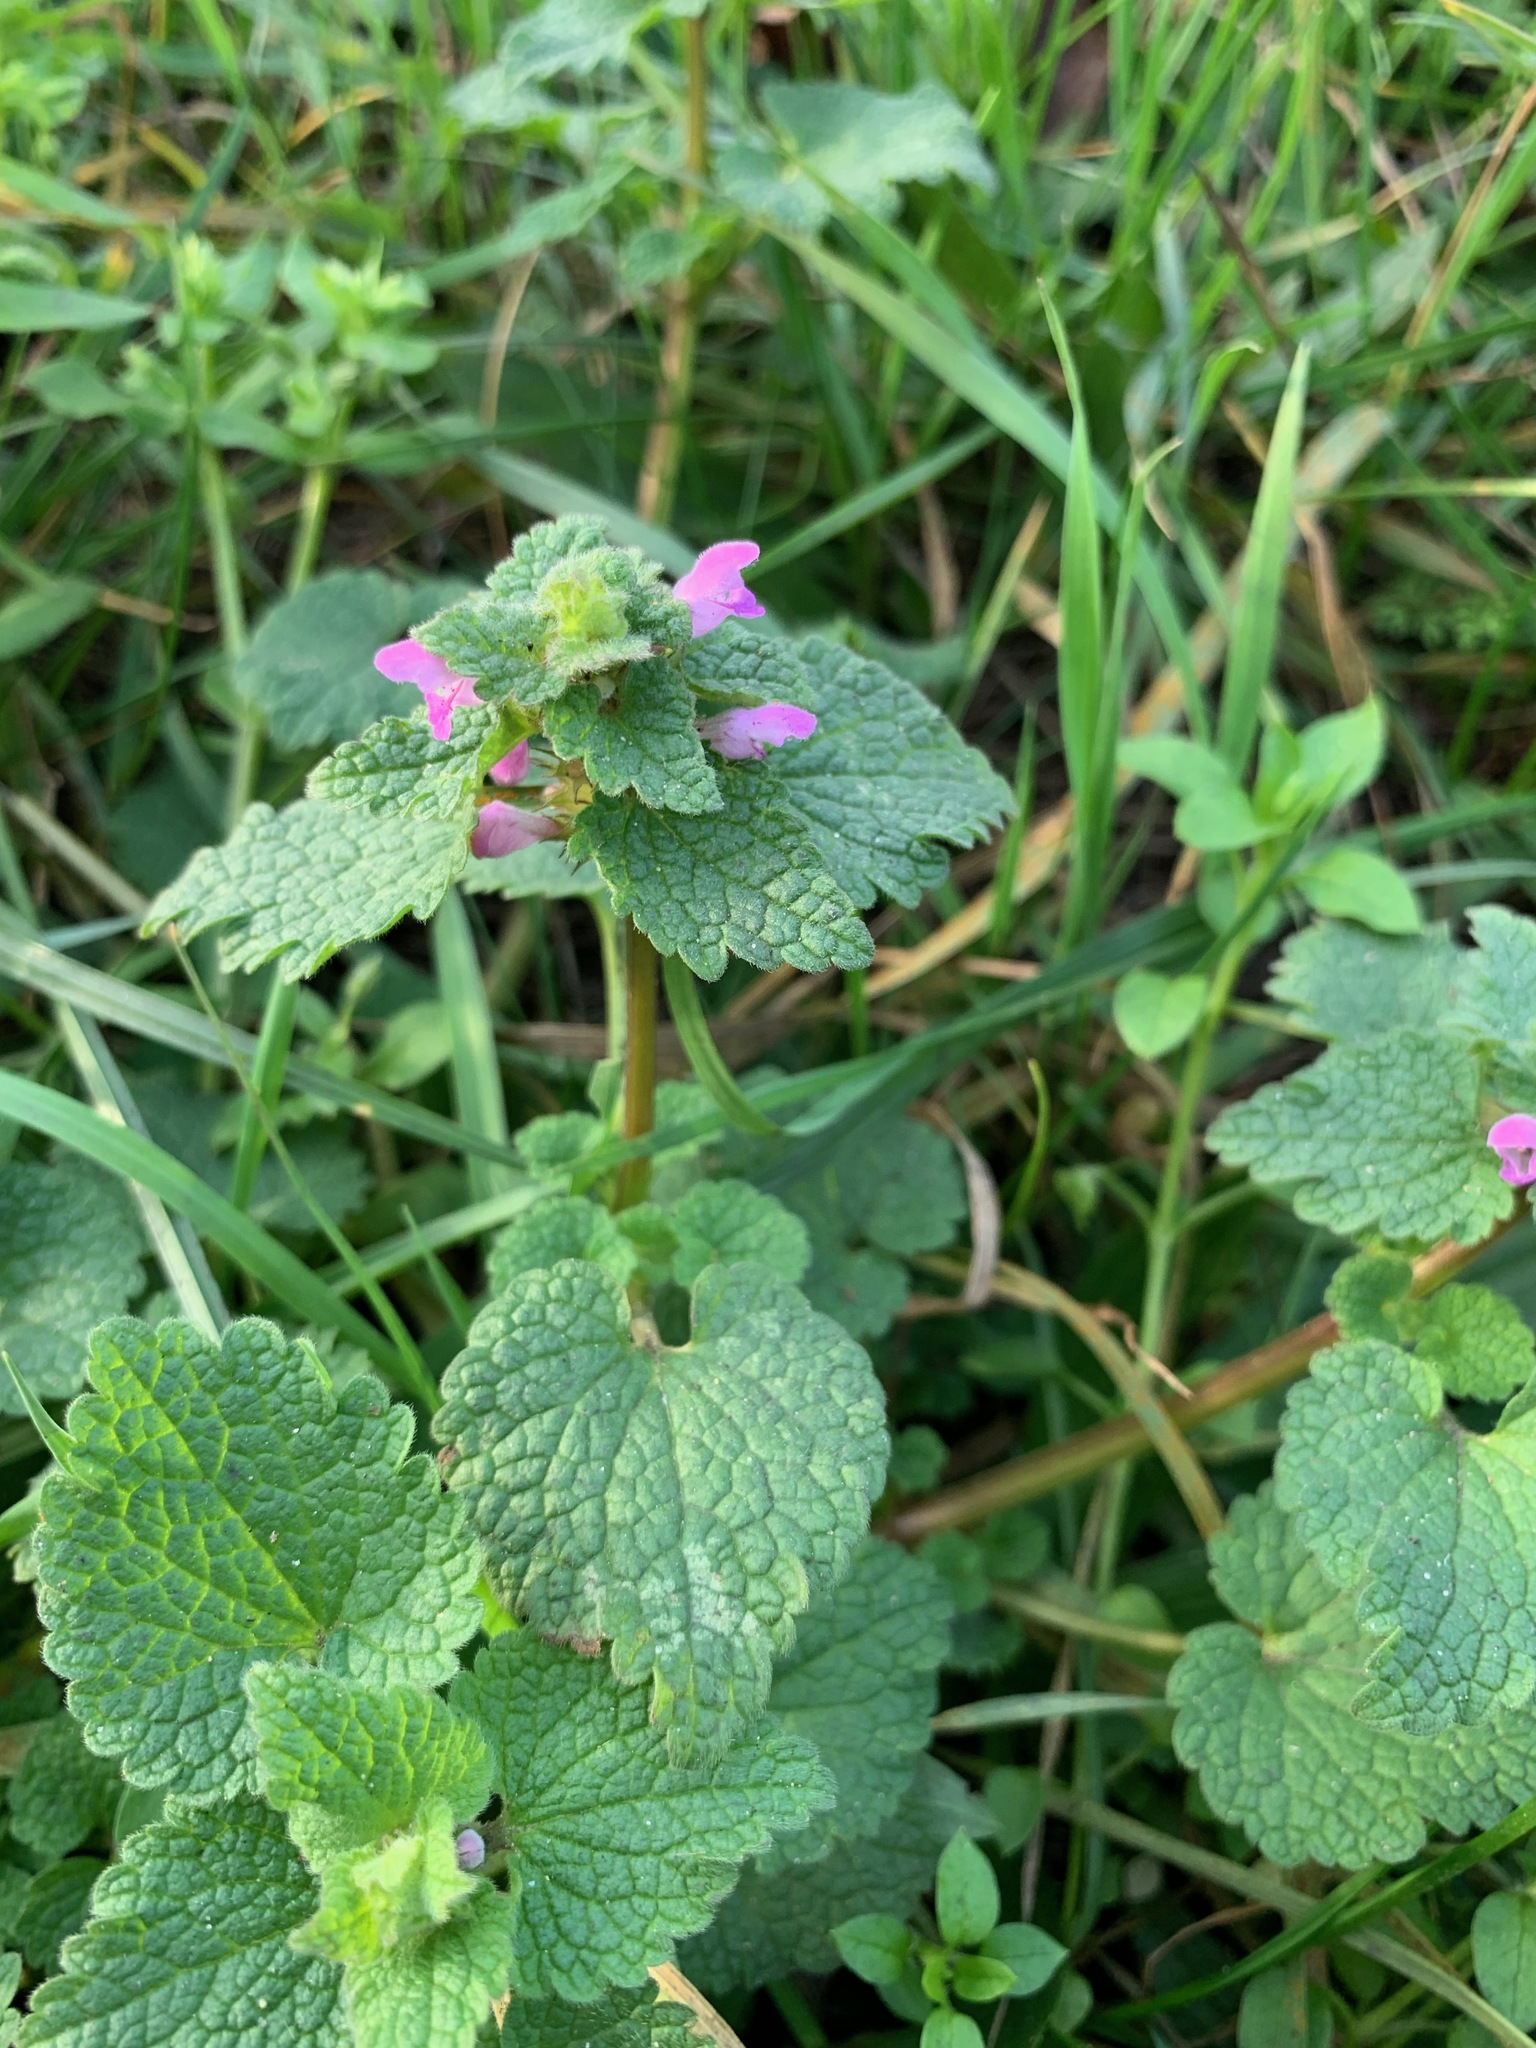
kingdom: Plantae
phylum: Tracheophyta
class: Magnoliopsida
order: Lamiales
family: Lamiaceae
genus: Lamium
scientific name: Lamium purpureum
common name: Red dead-nettle
